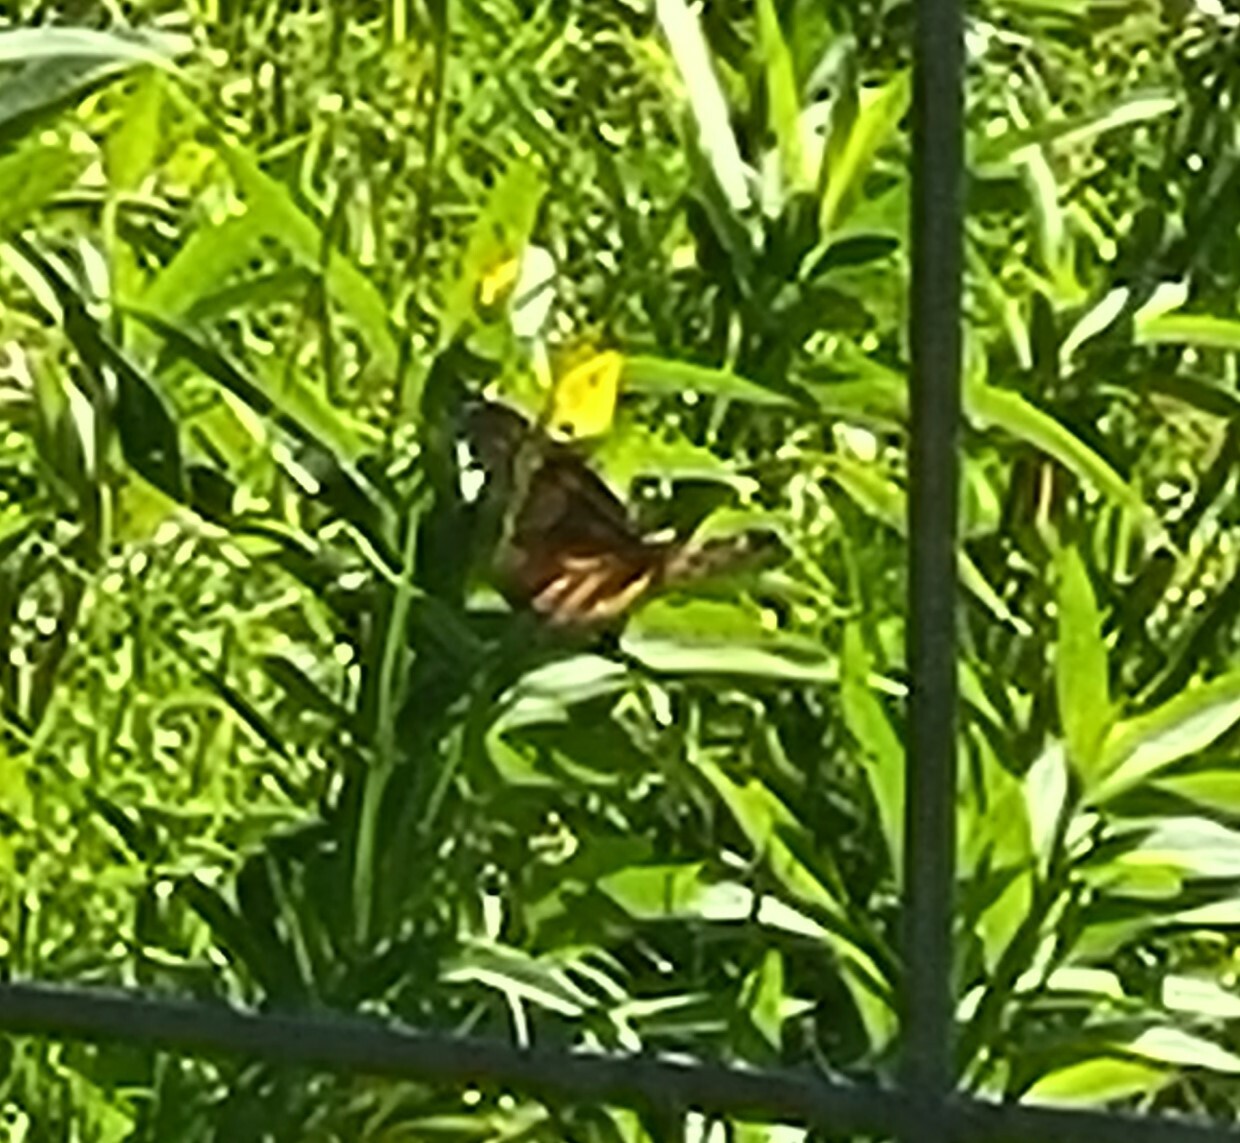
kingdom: Animalia
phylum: Arthropoda
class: Insecta
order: Lepidoptera
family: Nymphalidae
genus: Danaus
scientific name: Danaus plexippus
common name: Monarch
